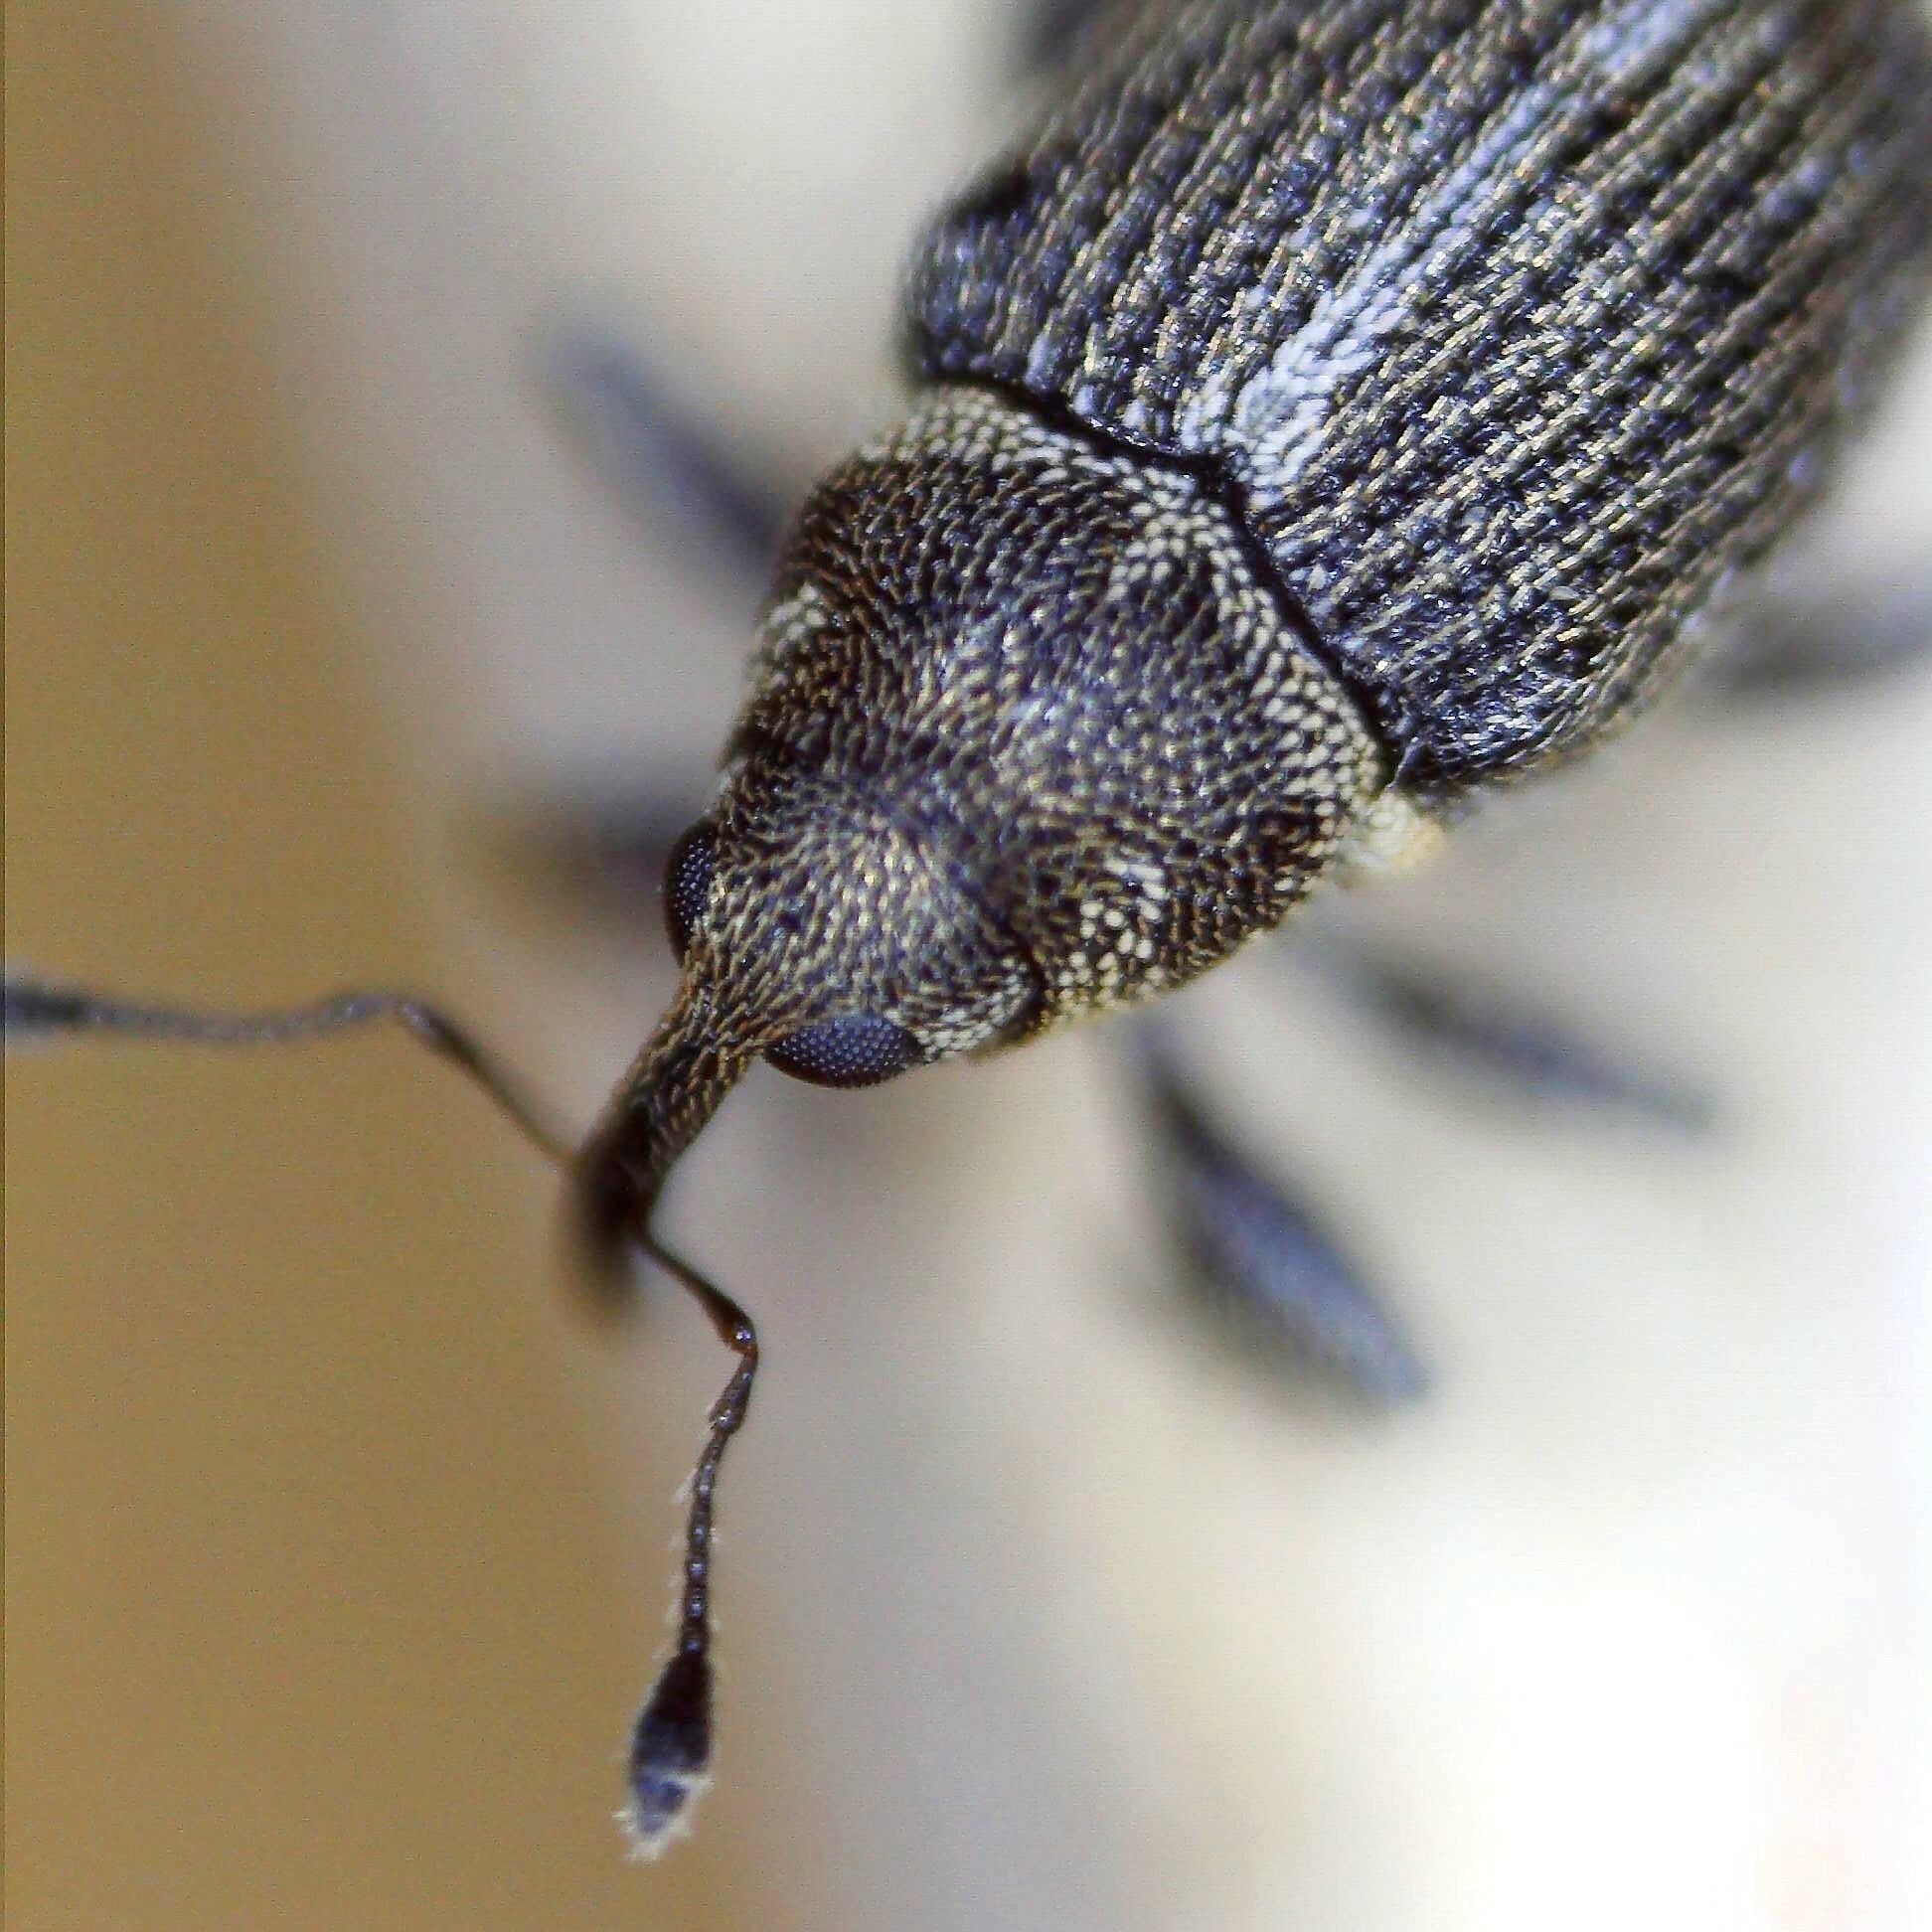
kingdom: Animalia
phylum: Arthropoda
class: Insecta
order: Coleoptera
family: Curculionidae
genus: Ceutorhynchus
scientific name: Ceutorhynchus typhae
